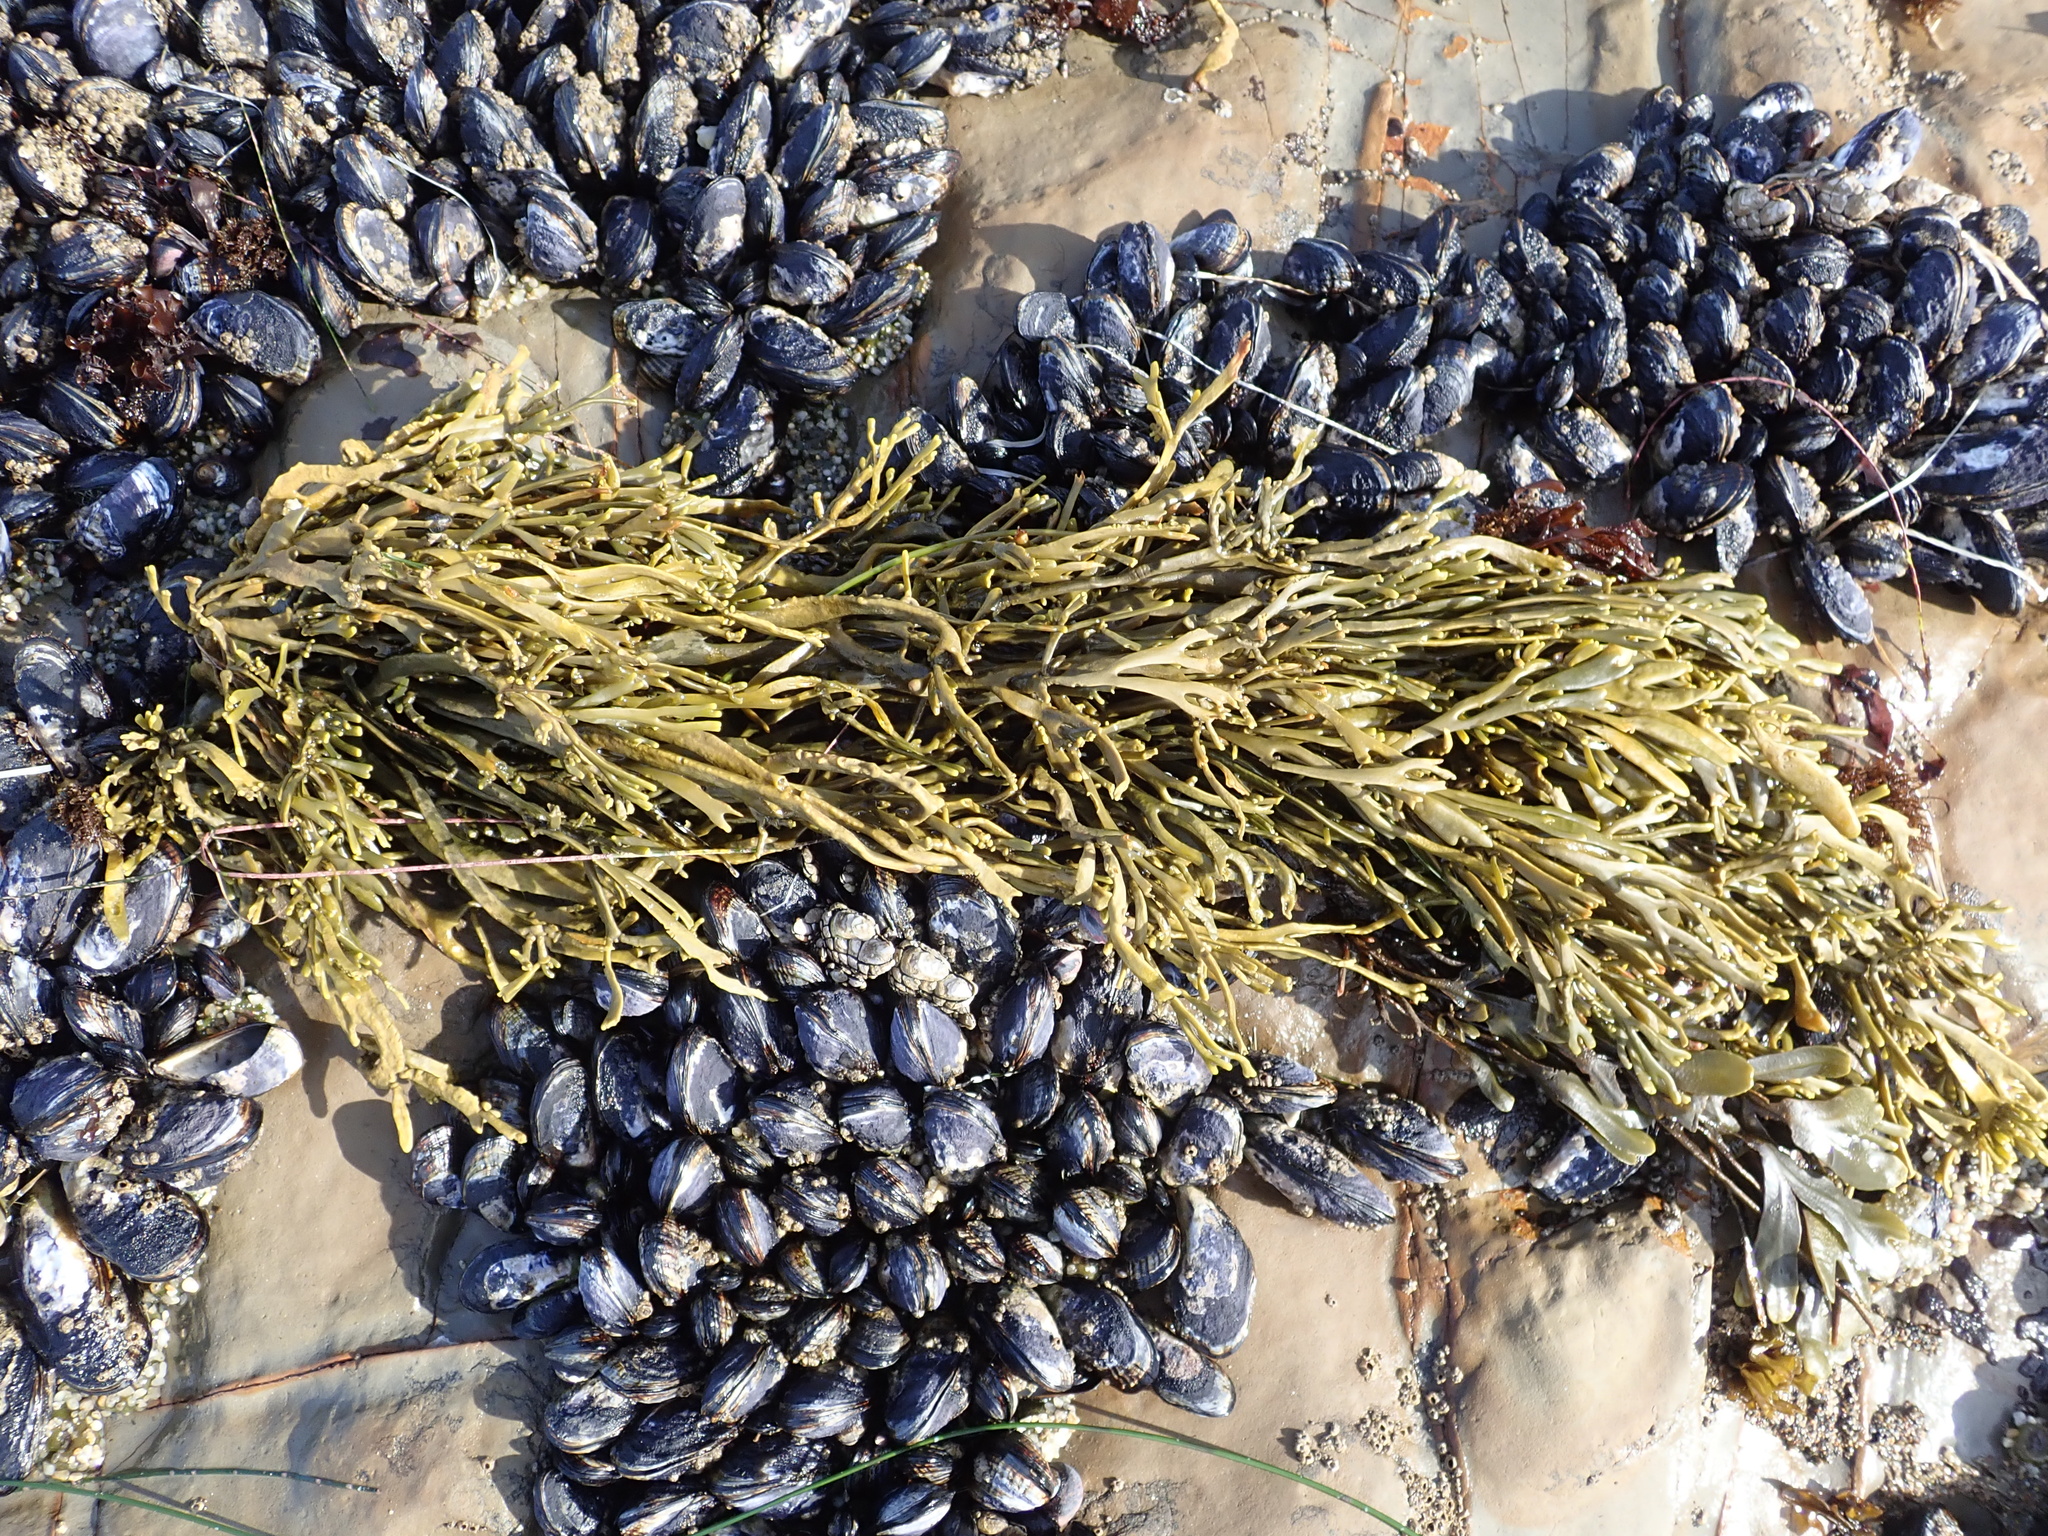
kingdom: Animalia
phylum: Mollusca
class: Bivalvia
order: Mytilida
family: Mytilidae
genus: Mytilus
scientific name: Mytilus californianus
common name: California mussel
